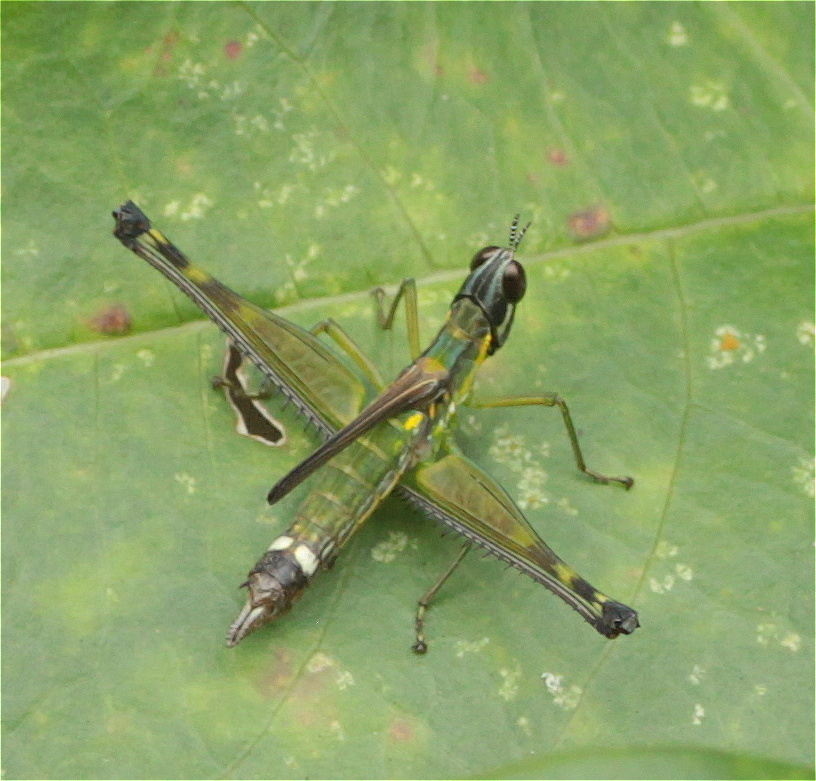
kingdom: Animalia
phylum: Arthropoda
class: Insecta
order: Orthoptera
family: Eumastacidae
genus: Malenamastax
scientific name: Malenamastax tobiensis
